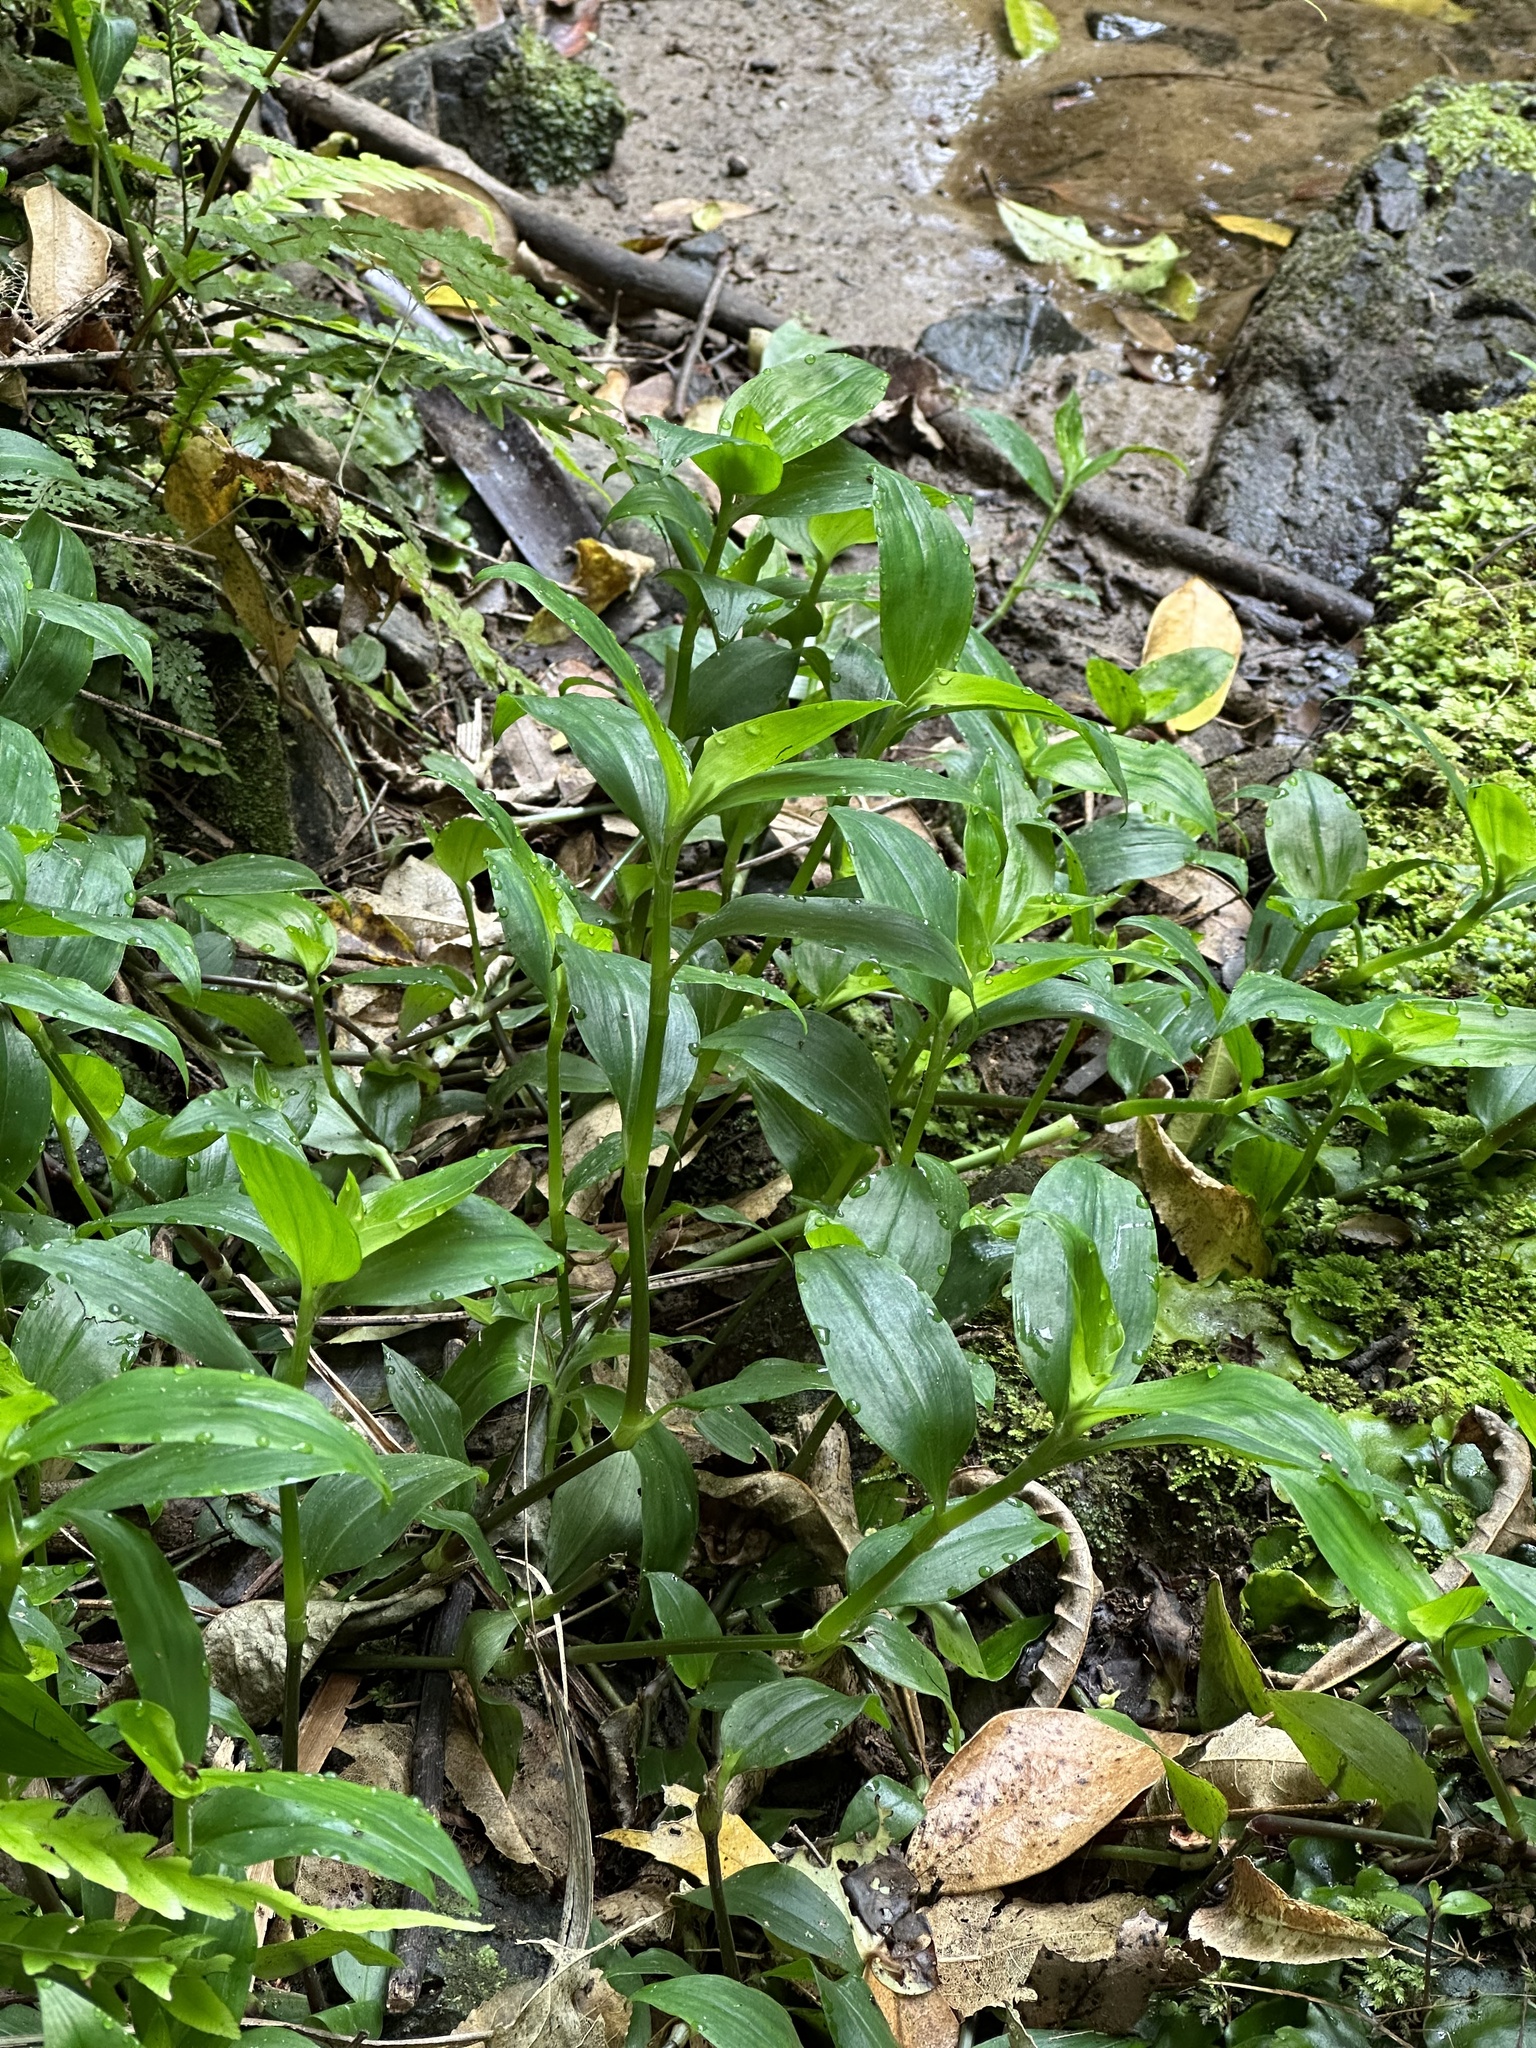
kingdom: Plantae
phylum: Tracheophyta
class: Liliopsida
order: Commelinales
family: Commelinaceae
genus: Tradescantia
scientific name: Tradescantia fluminensis
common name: Wandering-jew
